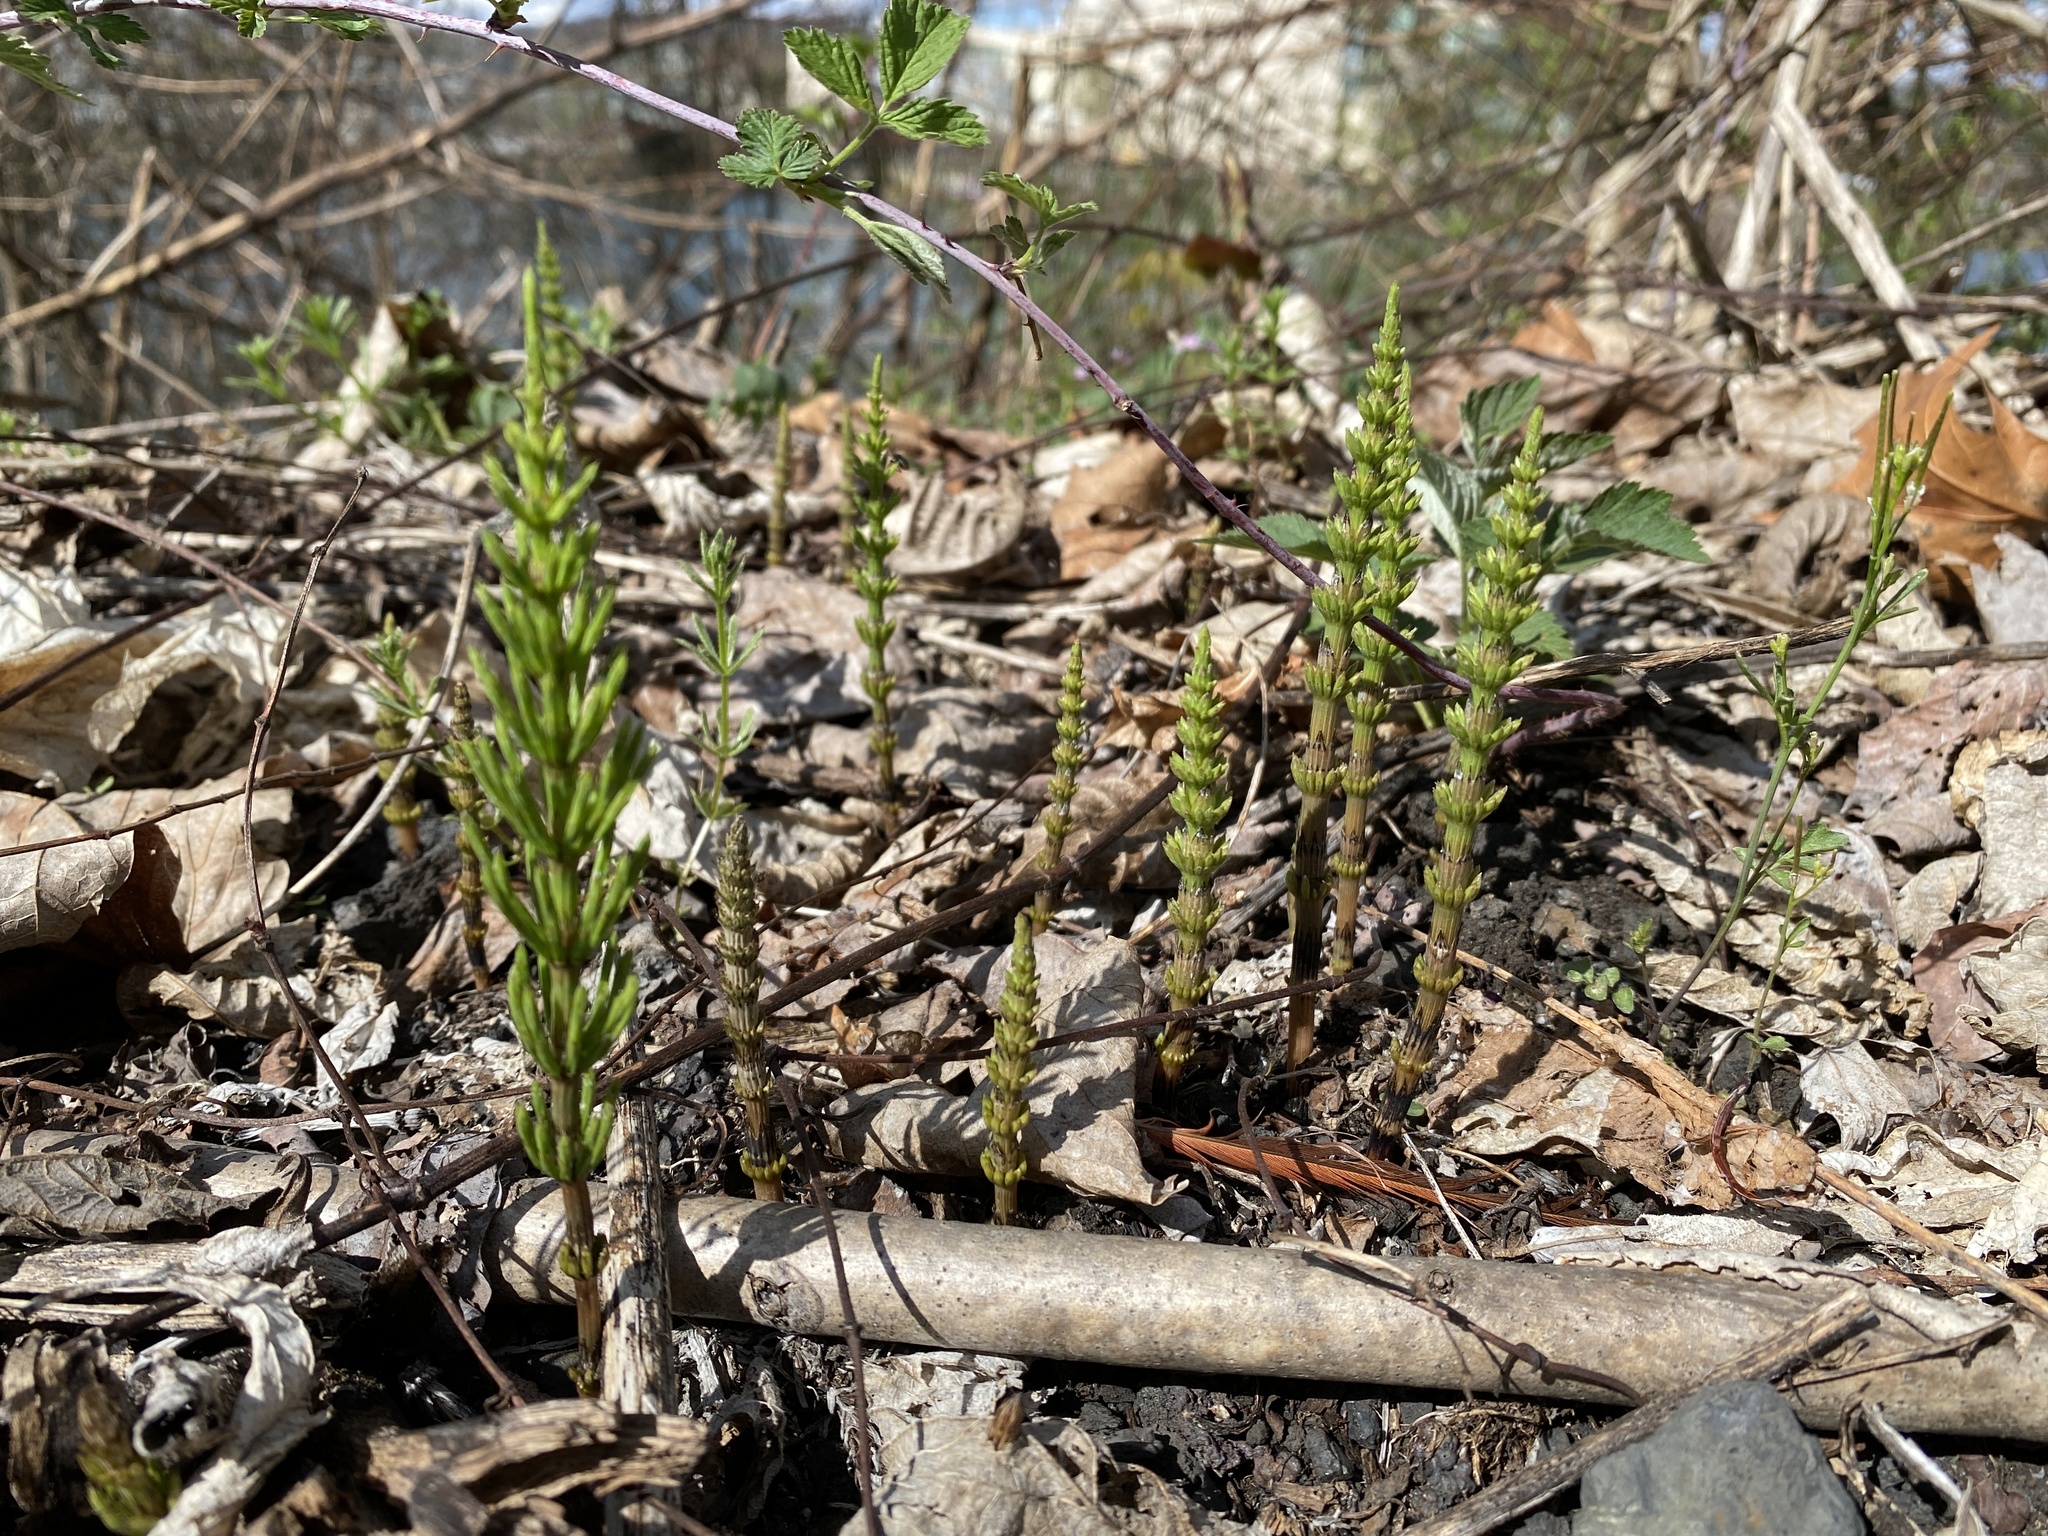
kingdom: Plantae
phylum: Tracheophyta
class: Polypodiopsida
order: Equisetales
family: Equisetaceae
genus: Equisetum
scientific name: Equisetum arvense
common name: Field horsetail
